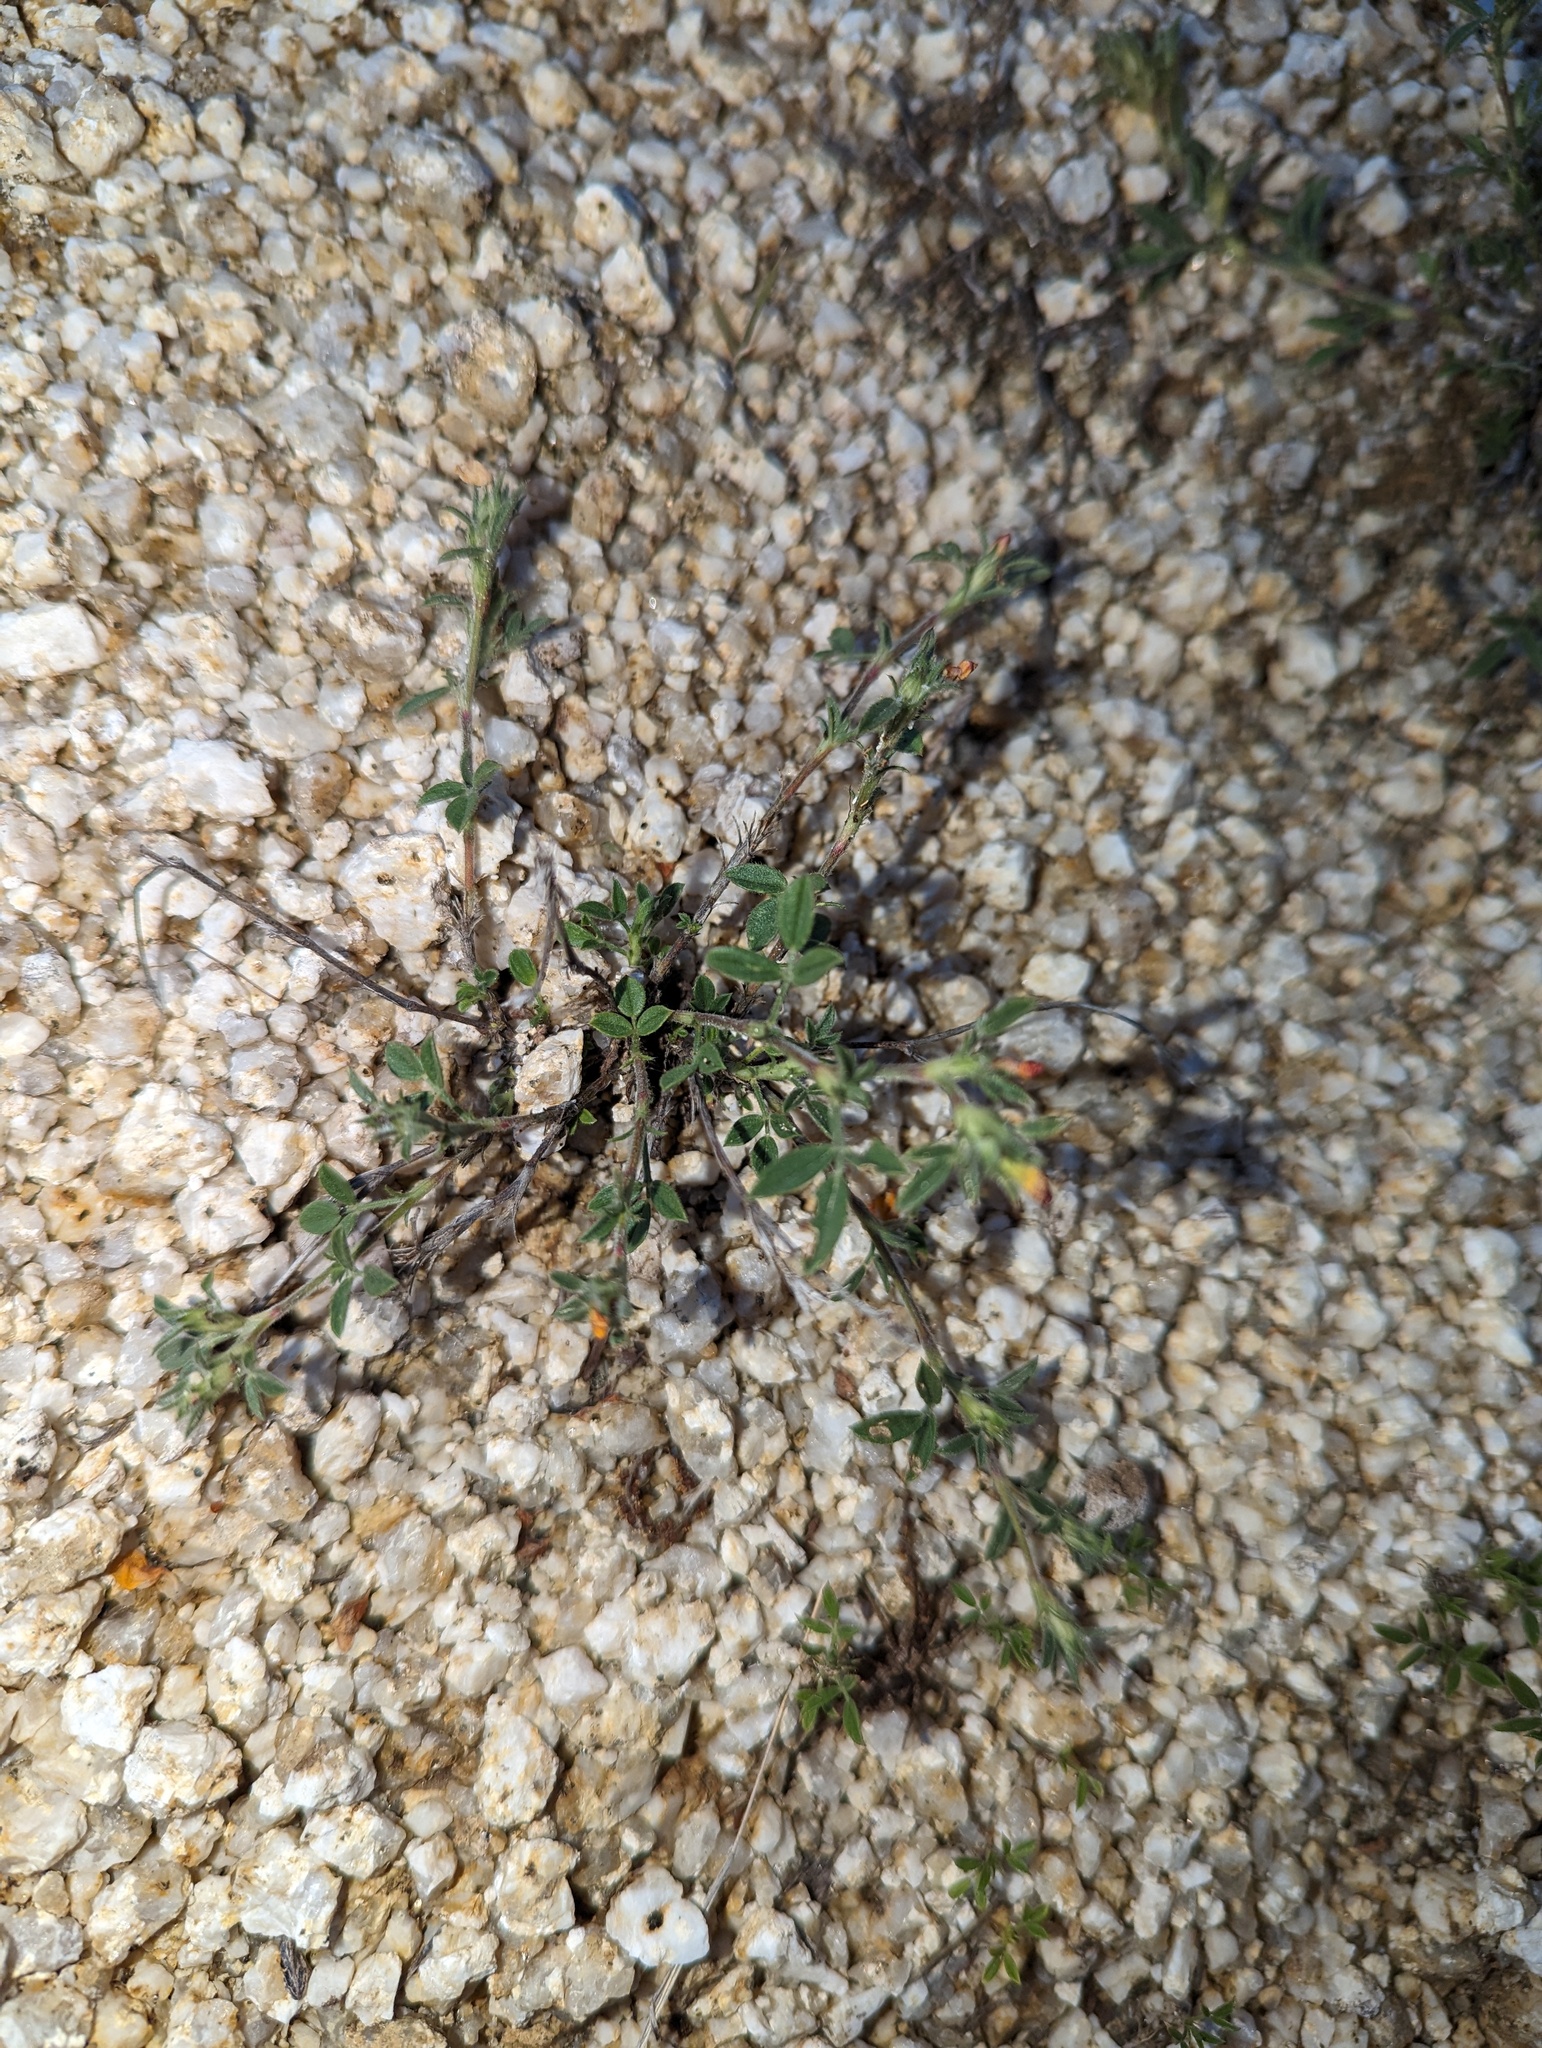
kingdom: Plantae
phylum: Tracheophyta
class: Magnoliopsida
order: Fabales
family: Fabaceae
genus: Stylosanthes
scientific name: Stylosanthes viscosa
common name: Viscid pencil-flower
